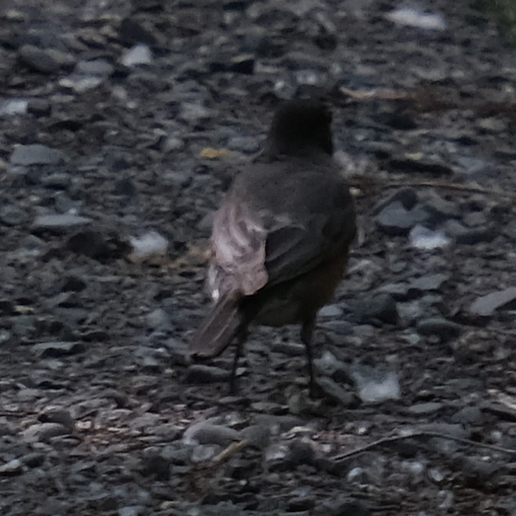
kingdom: Animalia
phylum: Chordata
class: Aves
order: Passeriformes
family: Turdidae
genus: Turdus
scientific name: Turdus migratorius
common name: American robin
